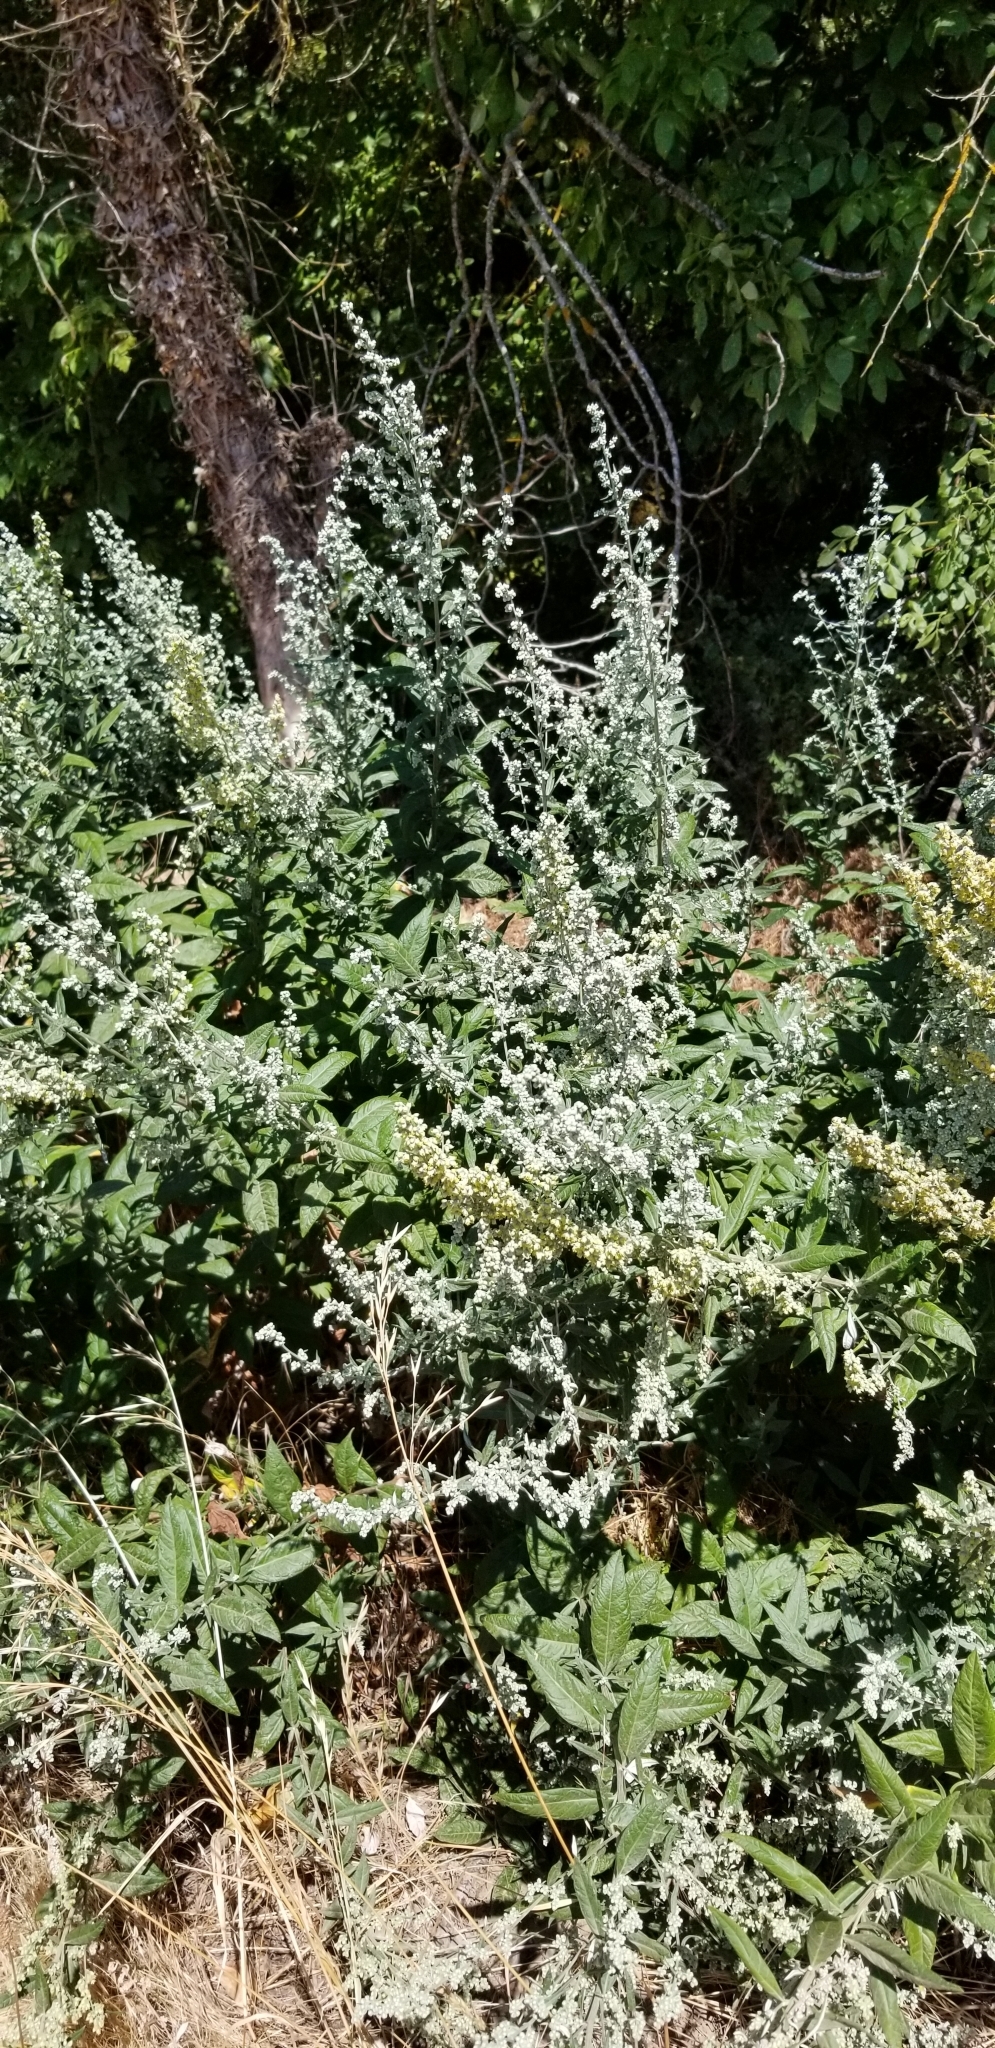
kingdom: Plantae
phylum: Tracheophyta
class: Magnoliopsida
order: Asterales
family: Asteraceae
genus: Artemisia
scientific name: Artemisia douglasiana
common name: Northwest mugwort
